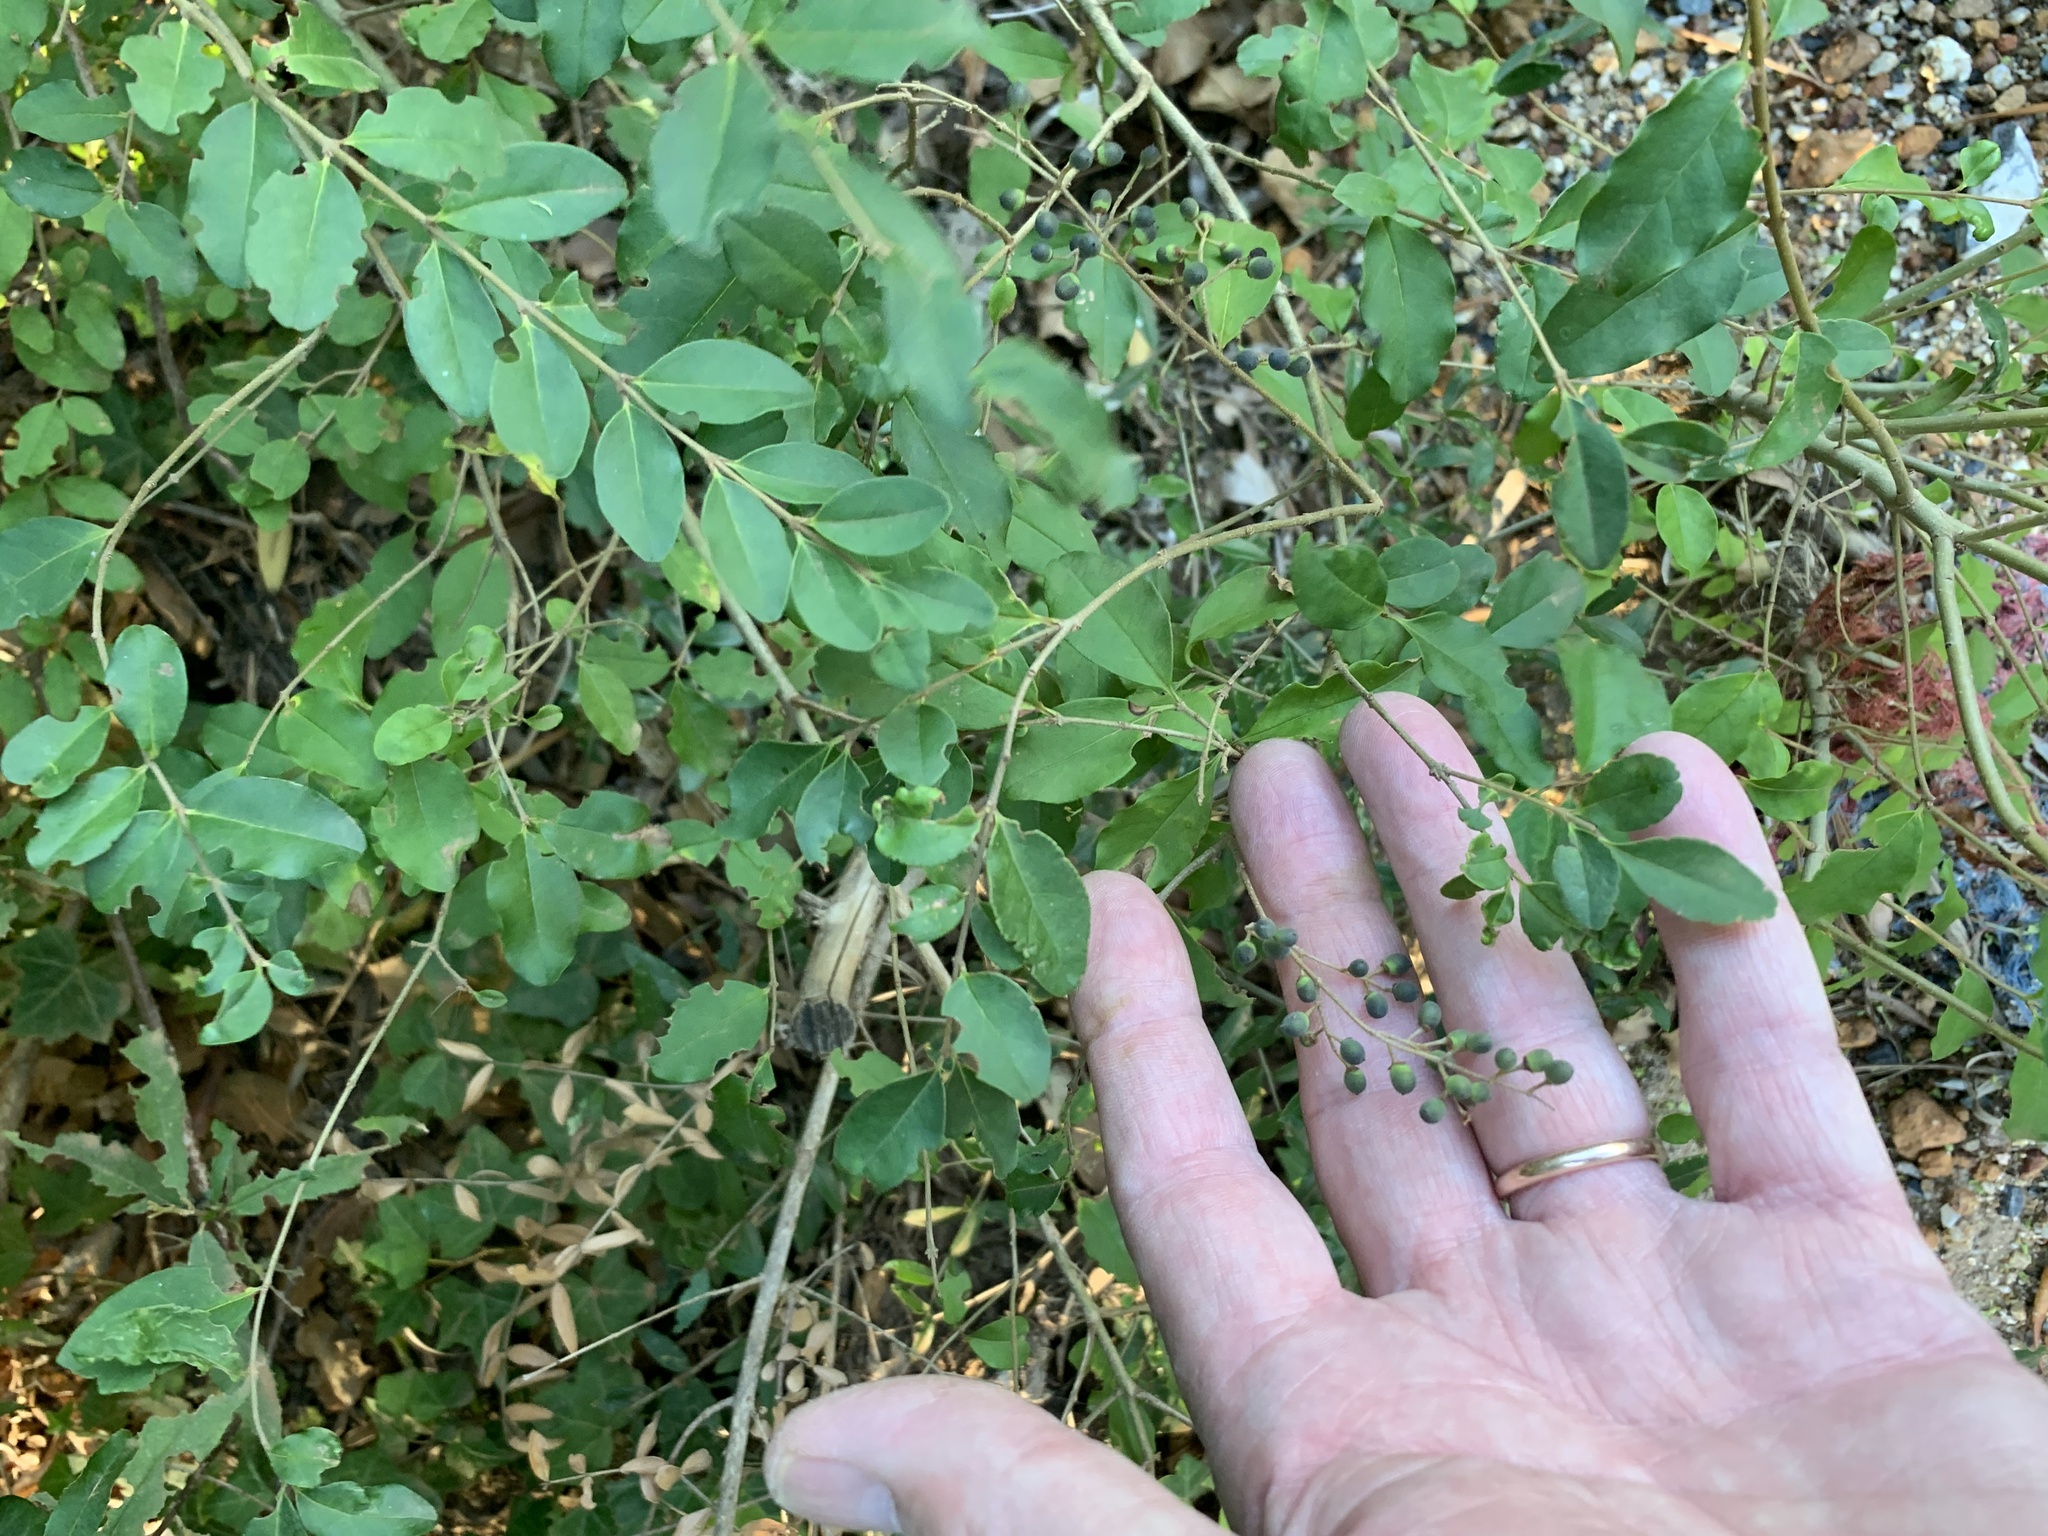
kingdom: Plantae
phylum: Tracheophyta
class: Magnoliopsida
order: Lamiales
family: Oleaceae
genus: Ligustrum
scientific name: Ligustrum sinense
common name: Chinese privet
